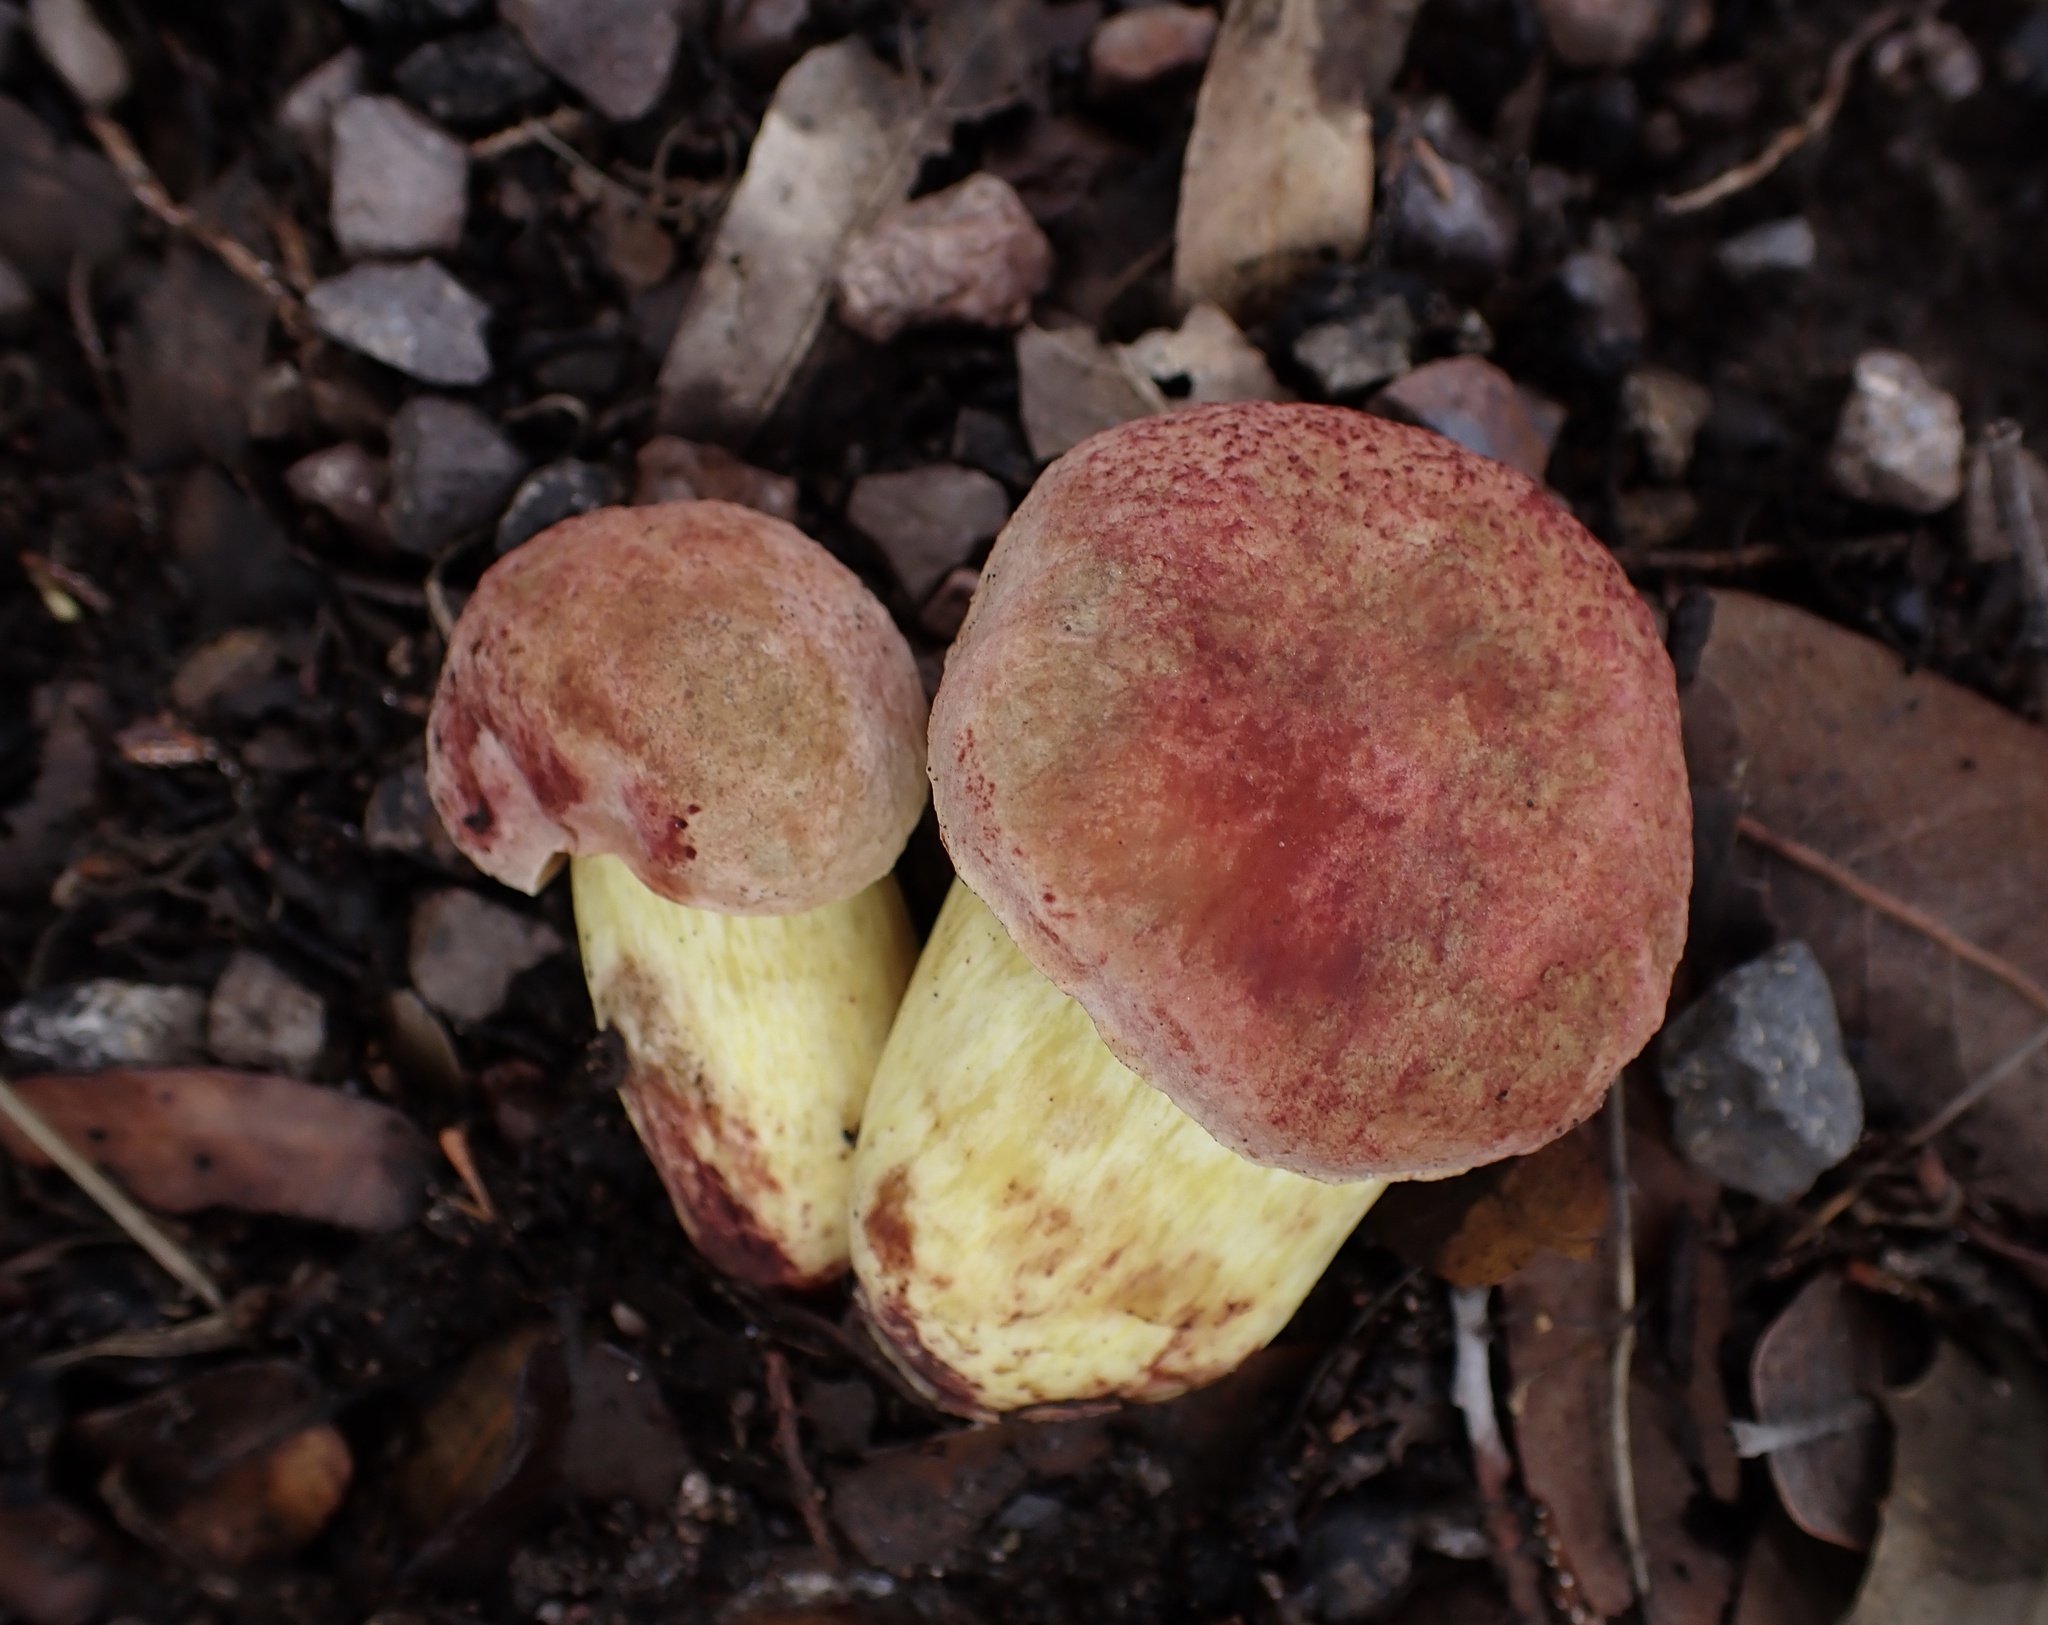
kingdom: Fungi
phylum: Basidiomycota
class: Agaricomycetes
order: Boletales
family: Boletaceae
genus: Pulchroboletus
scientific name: Pulchroboletus rubricitrinus
